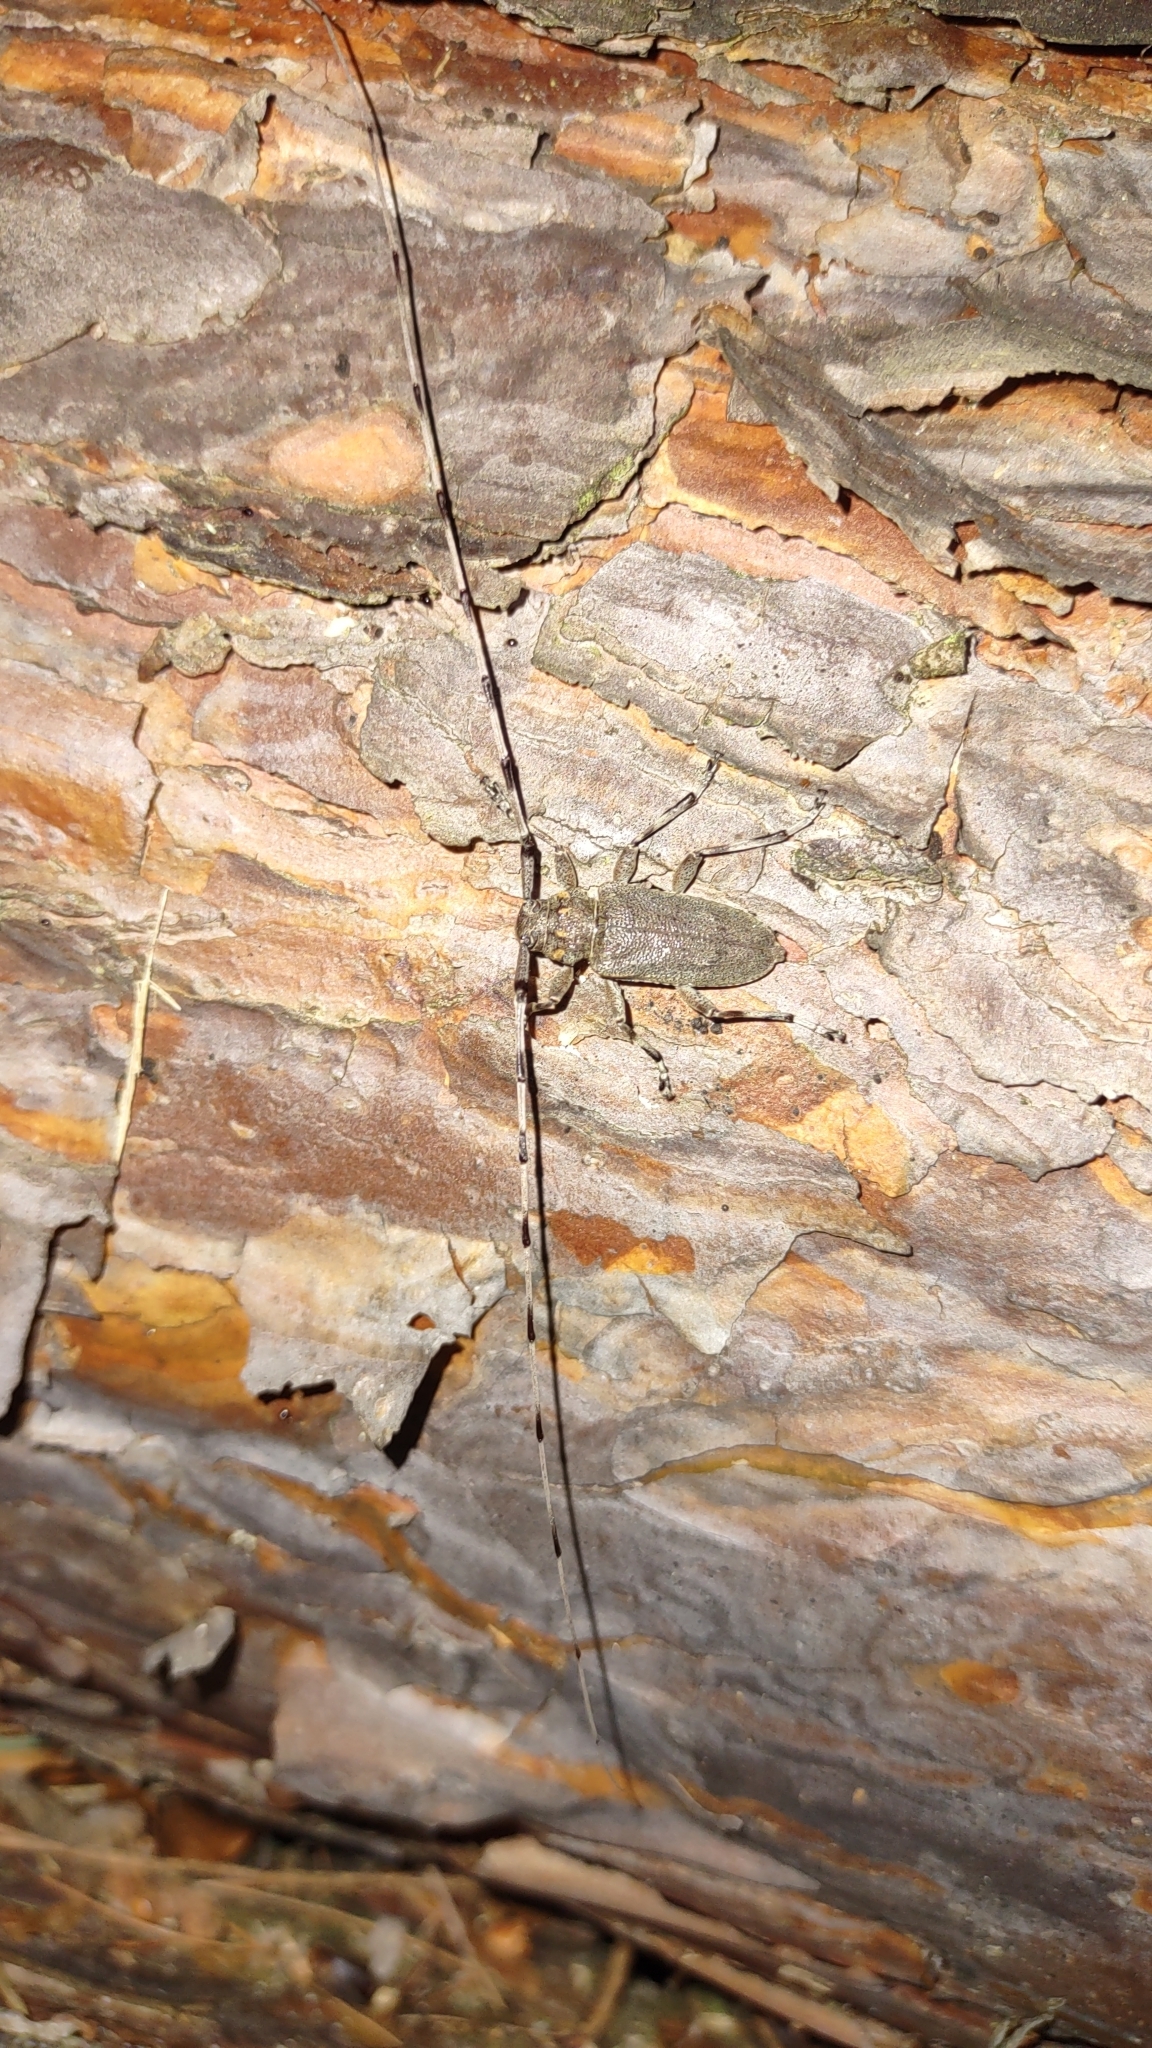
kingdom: Animalia
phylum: Arthropoda
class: Insecta
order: Coleoptera
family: Cerambycidae
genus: Acanthocinus
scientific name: Acanthocinus aedilis
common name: Timberman beetle
